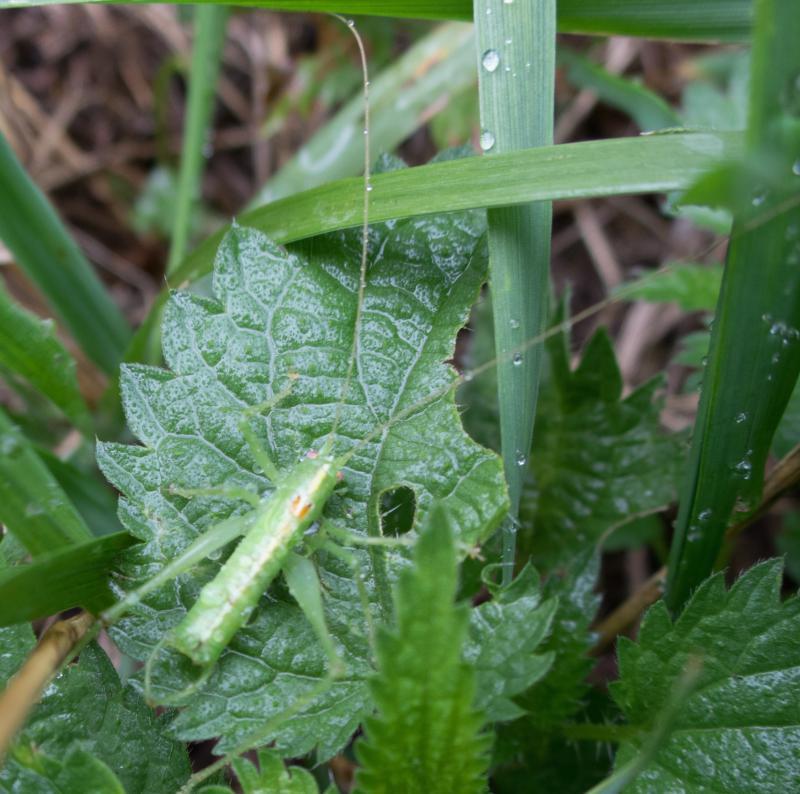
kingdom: Animalia
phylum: Arthropoda
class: Insecta
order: Orthoptera
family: Tettigoniidae
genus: Meconema
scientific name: Meconema meridionale
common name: Southern oak bush-cricket
